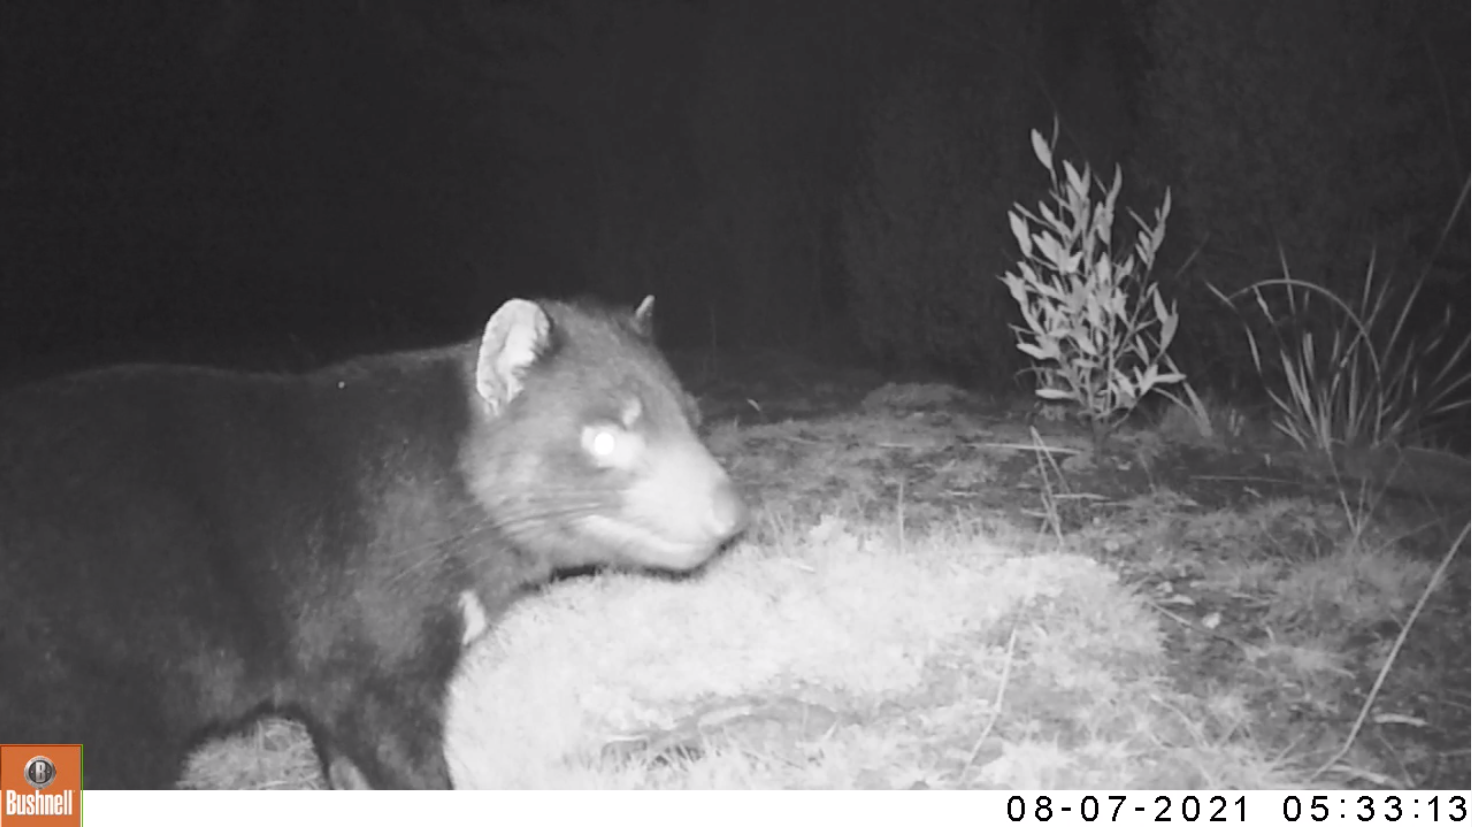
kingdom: Animalia
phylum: Chordata
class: Mammalia
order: Dasyuromorphia
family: Dasyuridae
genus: Sarcophilus
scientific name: Sarcophilus harrisii
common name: Tasmanian devil
